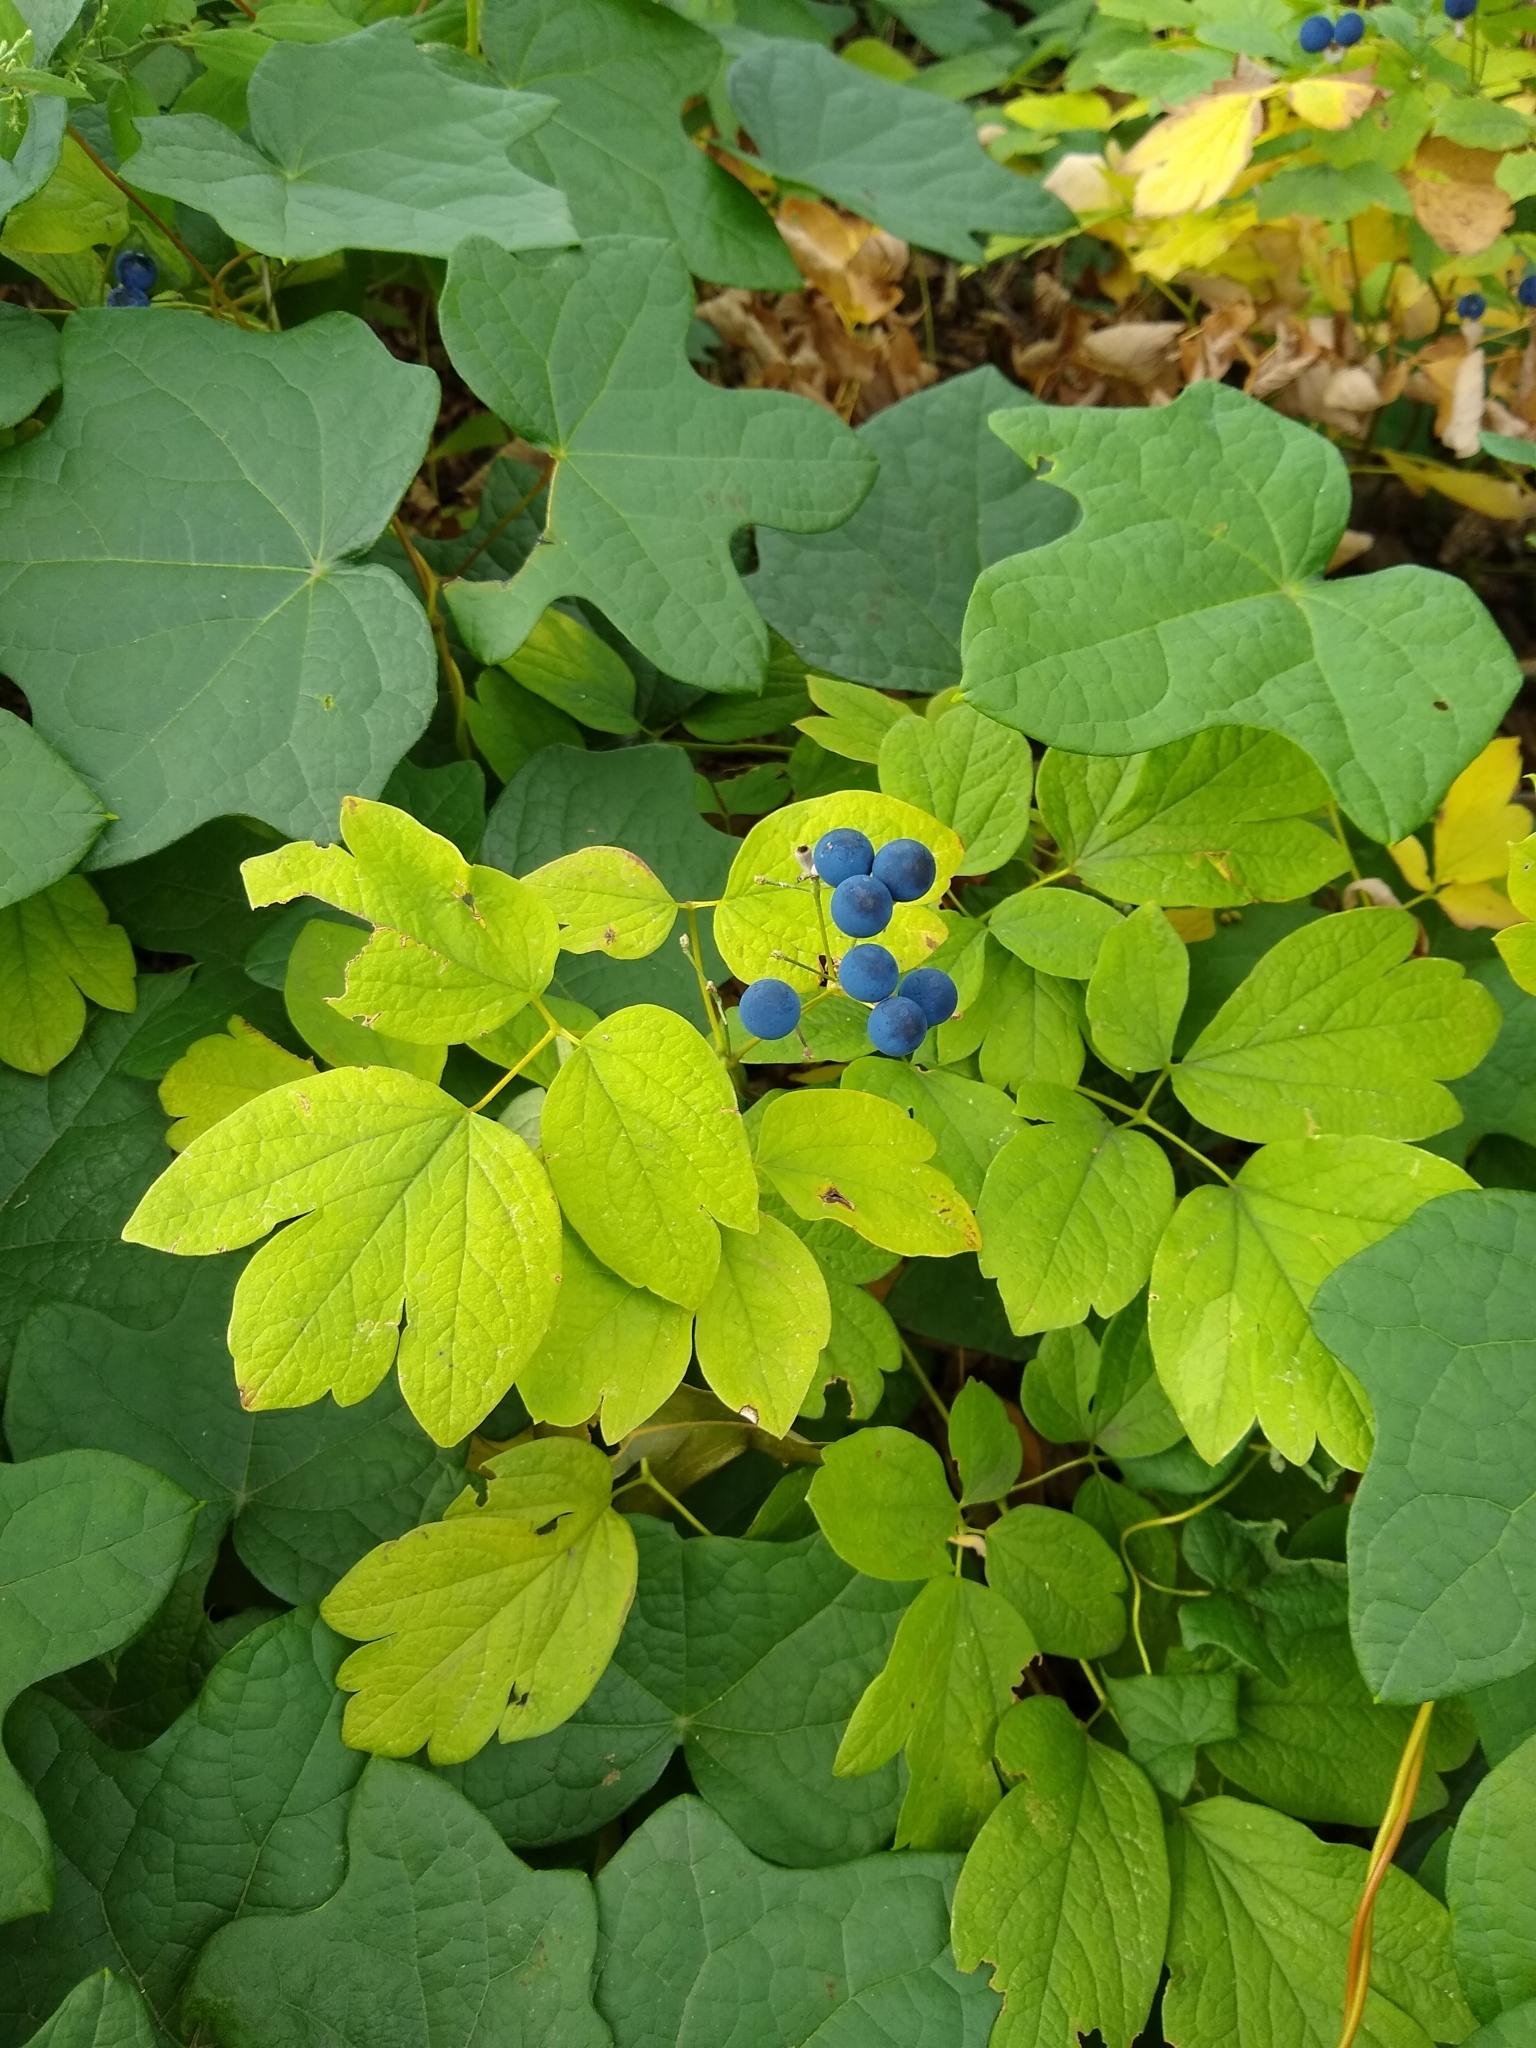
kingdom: Plantae
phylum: Tracheophyta
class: Magnoliopsida
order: Ranunculales
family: Berberidaceae
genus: Caulophyllum
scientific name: Caulophyllum thalictroides
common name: Blue cohosh
